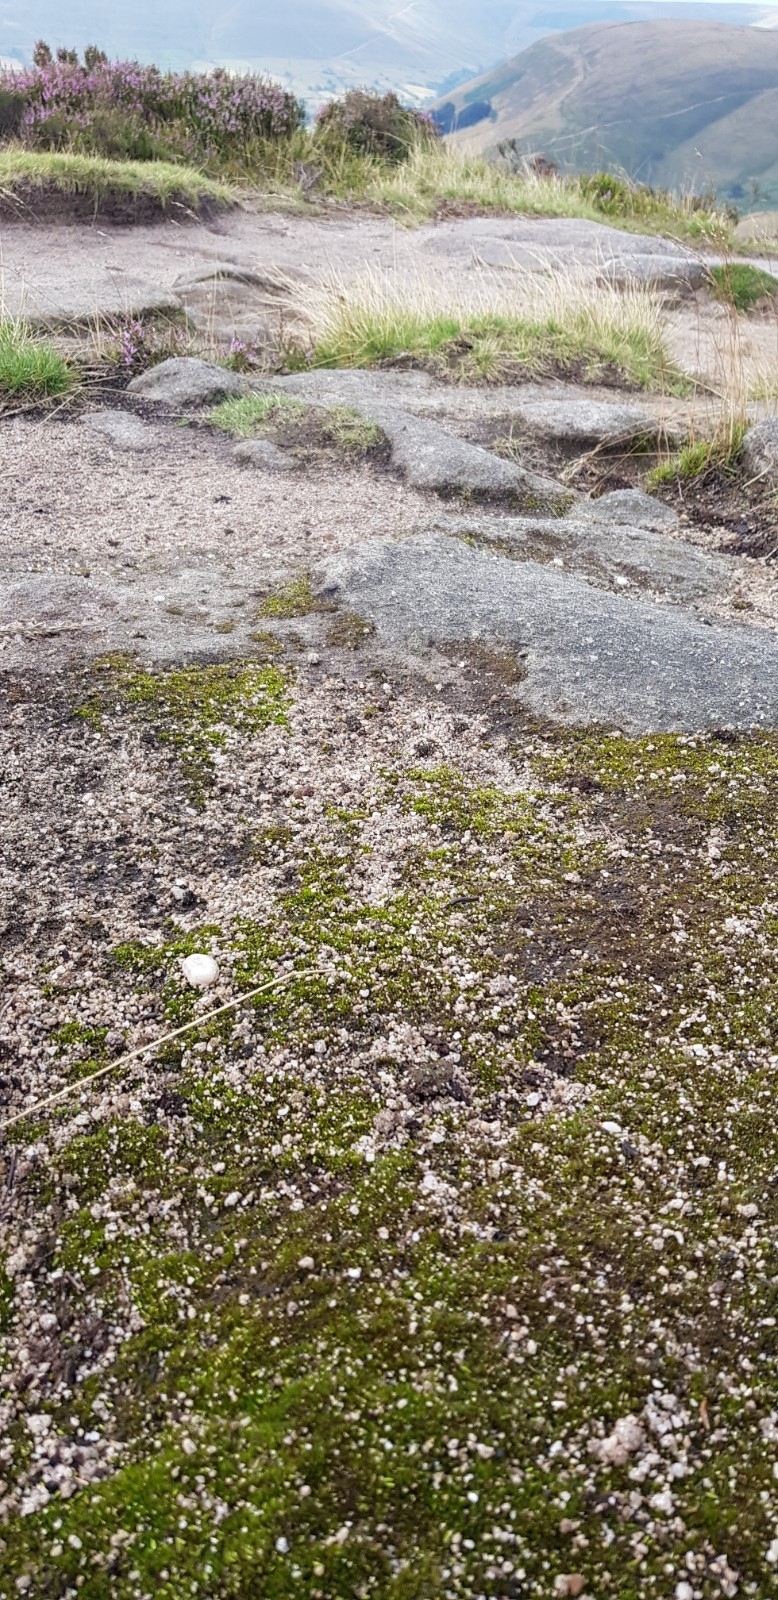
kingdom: Plantae
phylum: Bryophyta
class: Bryopsida
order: Dicranales
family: Leucobryaceae
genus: Campylopus
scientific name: Campylopus introflexus
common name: Heath star moss
